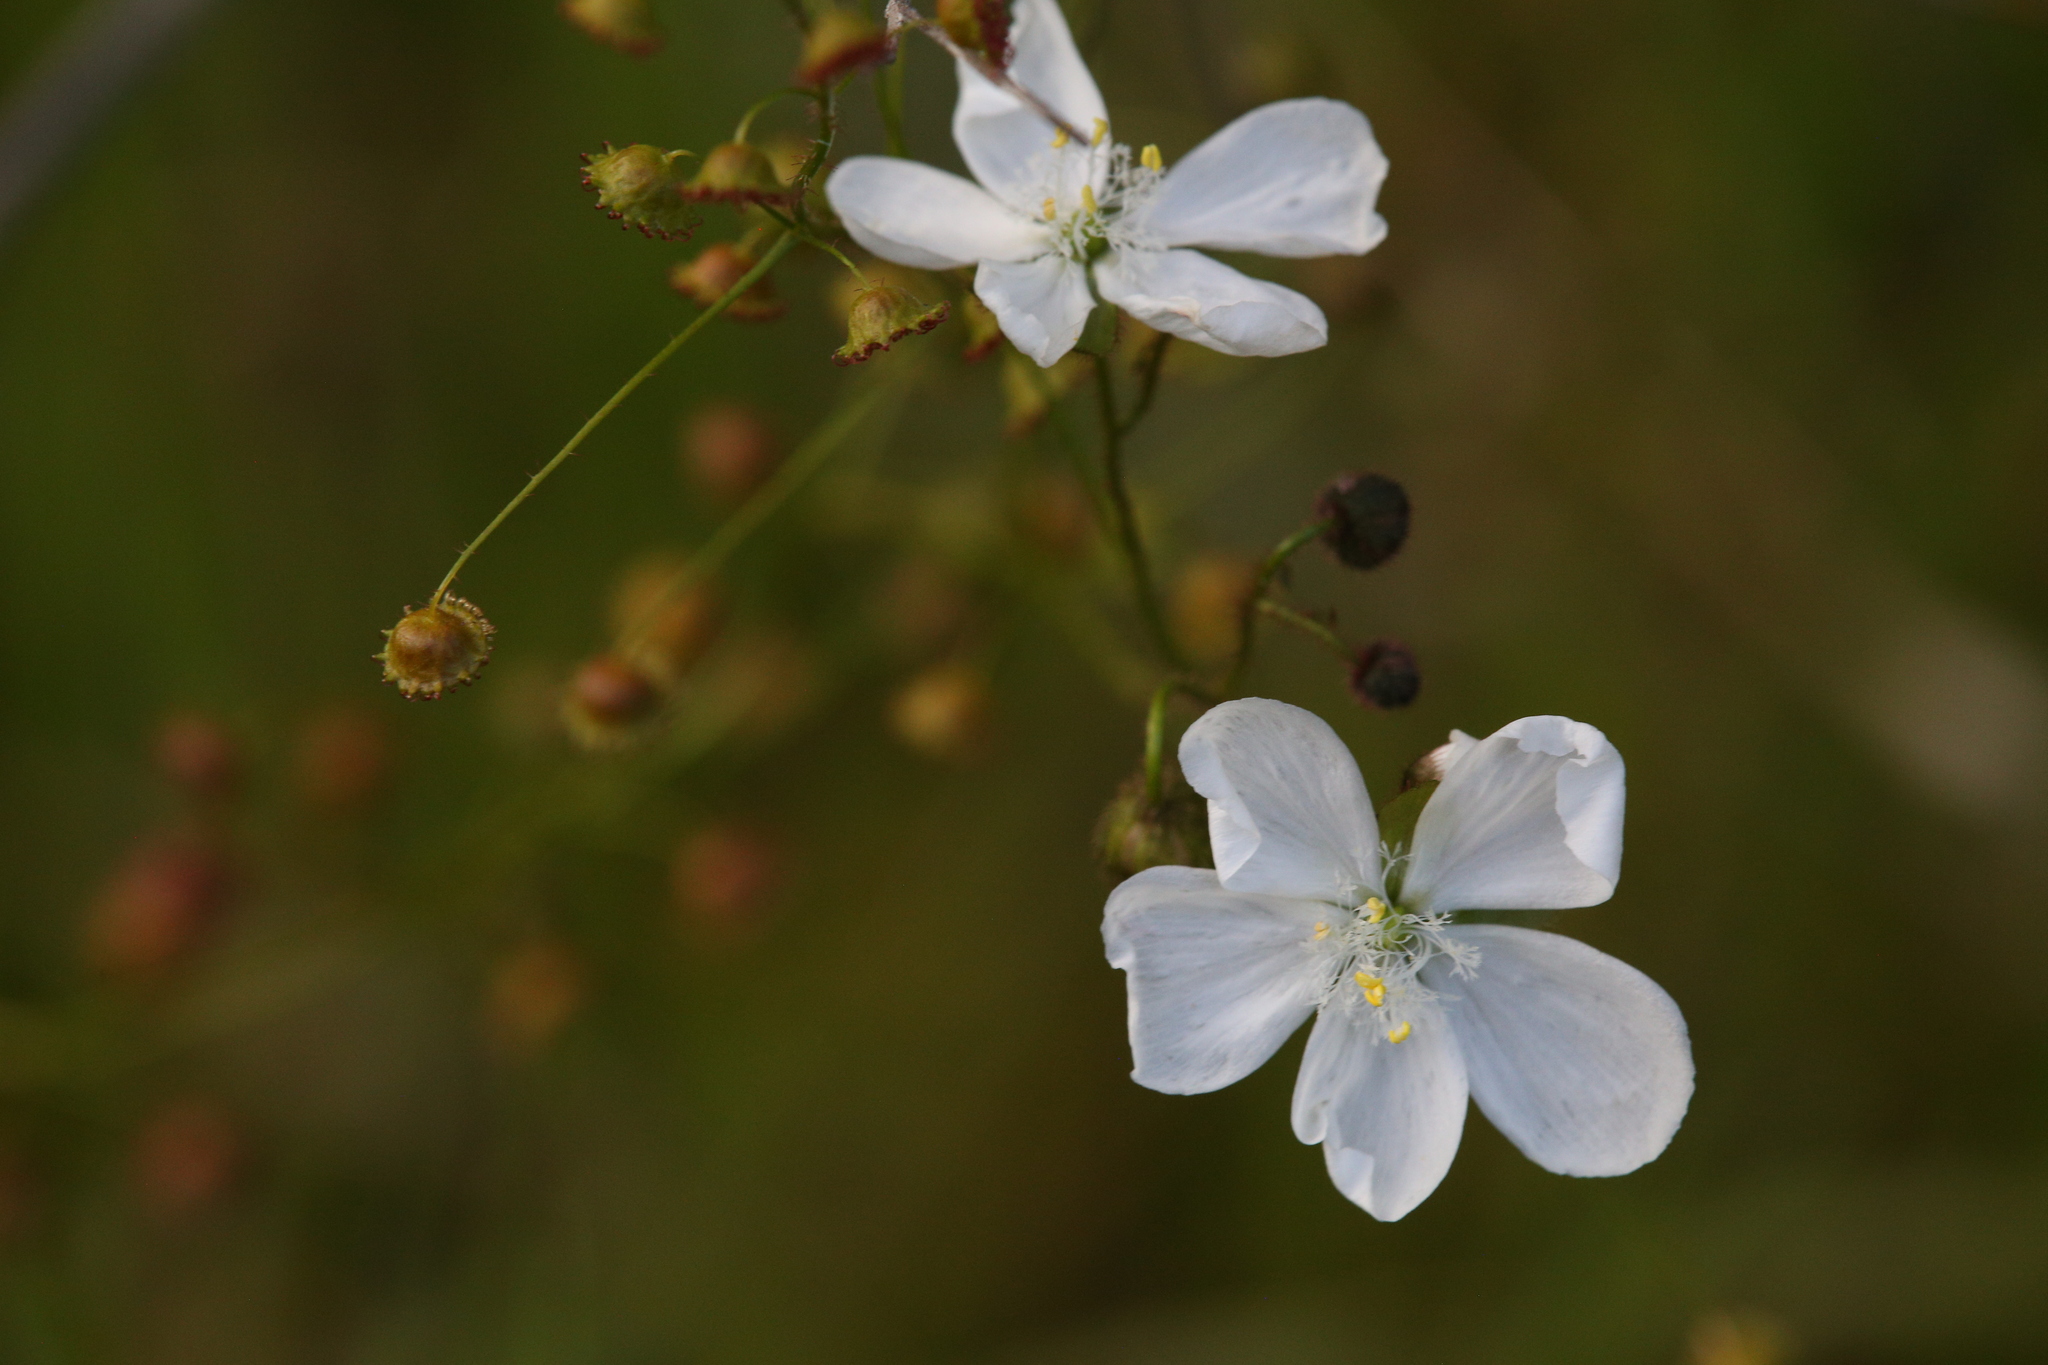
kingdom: Plantae
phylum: Tracheophyta
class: Magnoliopsida
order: Caryophyllales
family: Droseraceae
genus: Drosera
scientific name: Drosera macrantha
